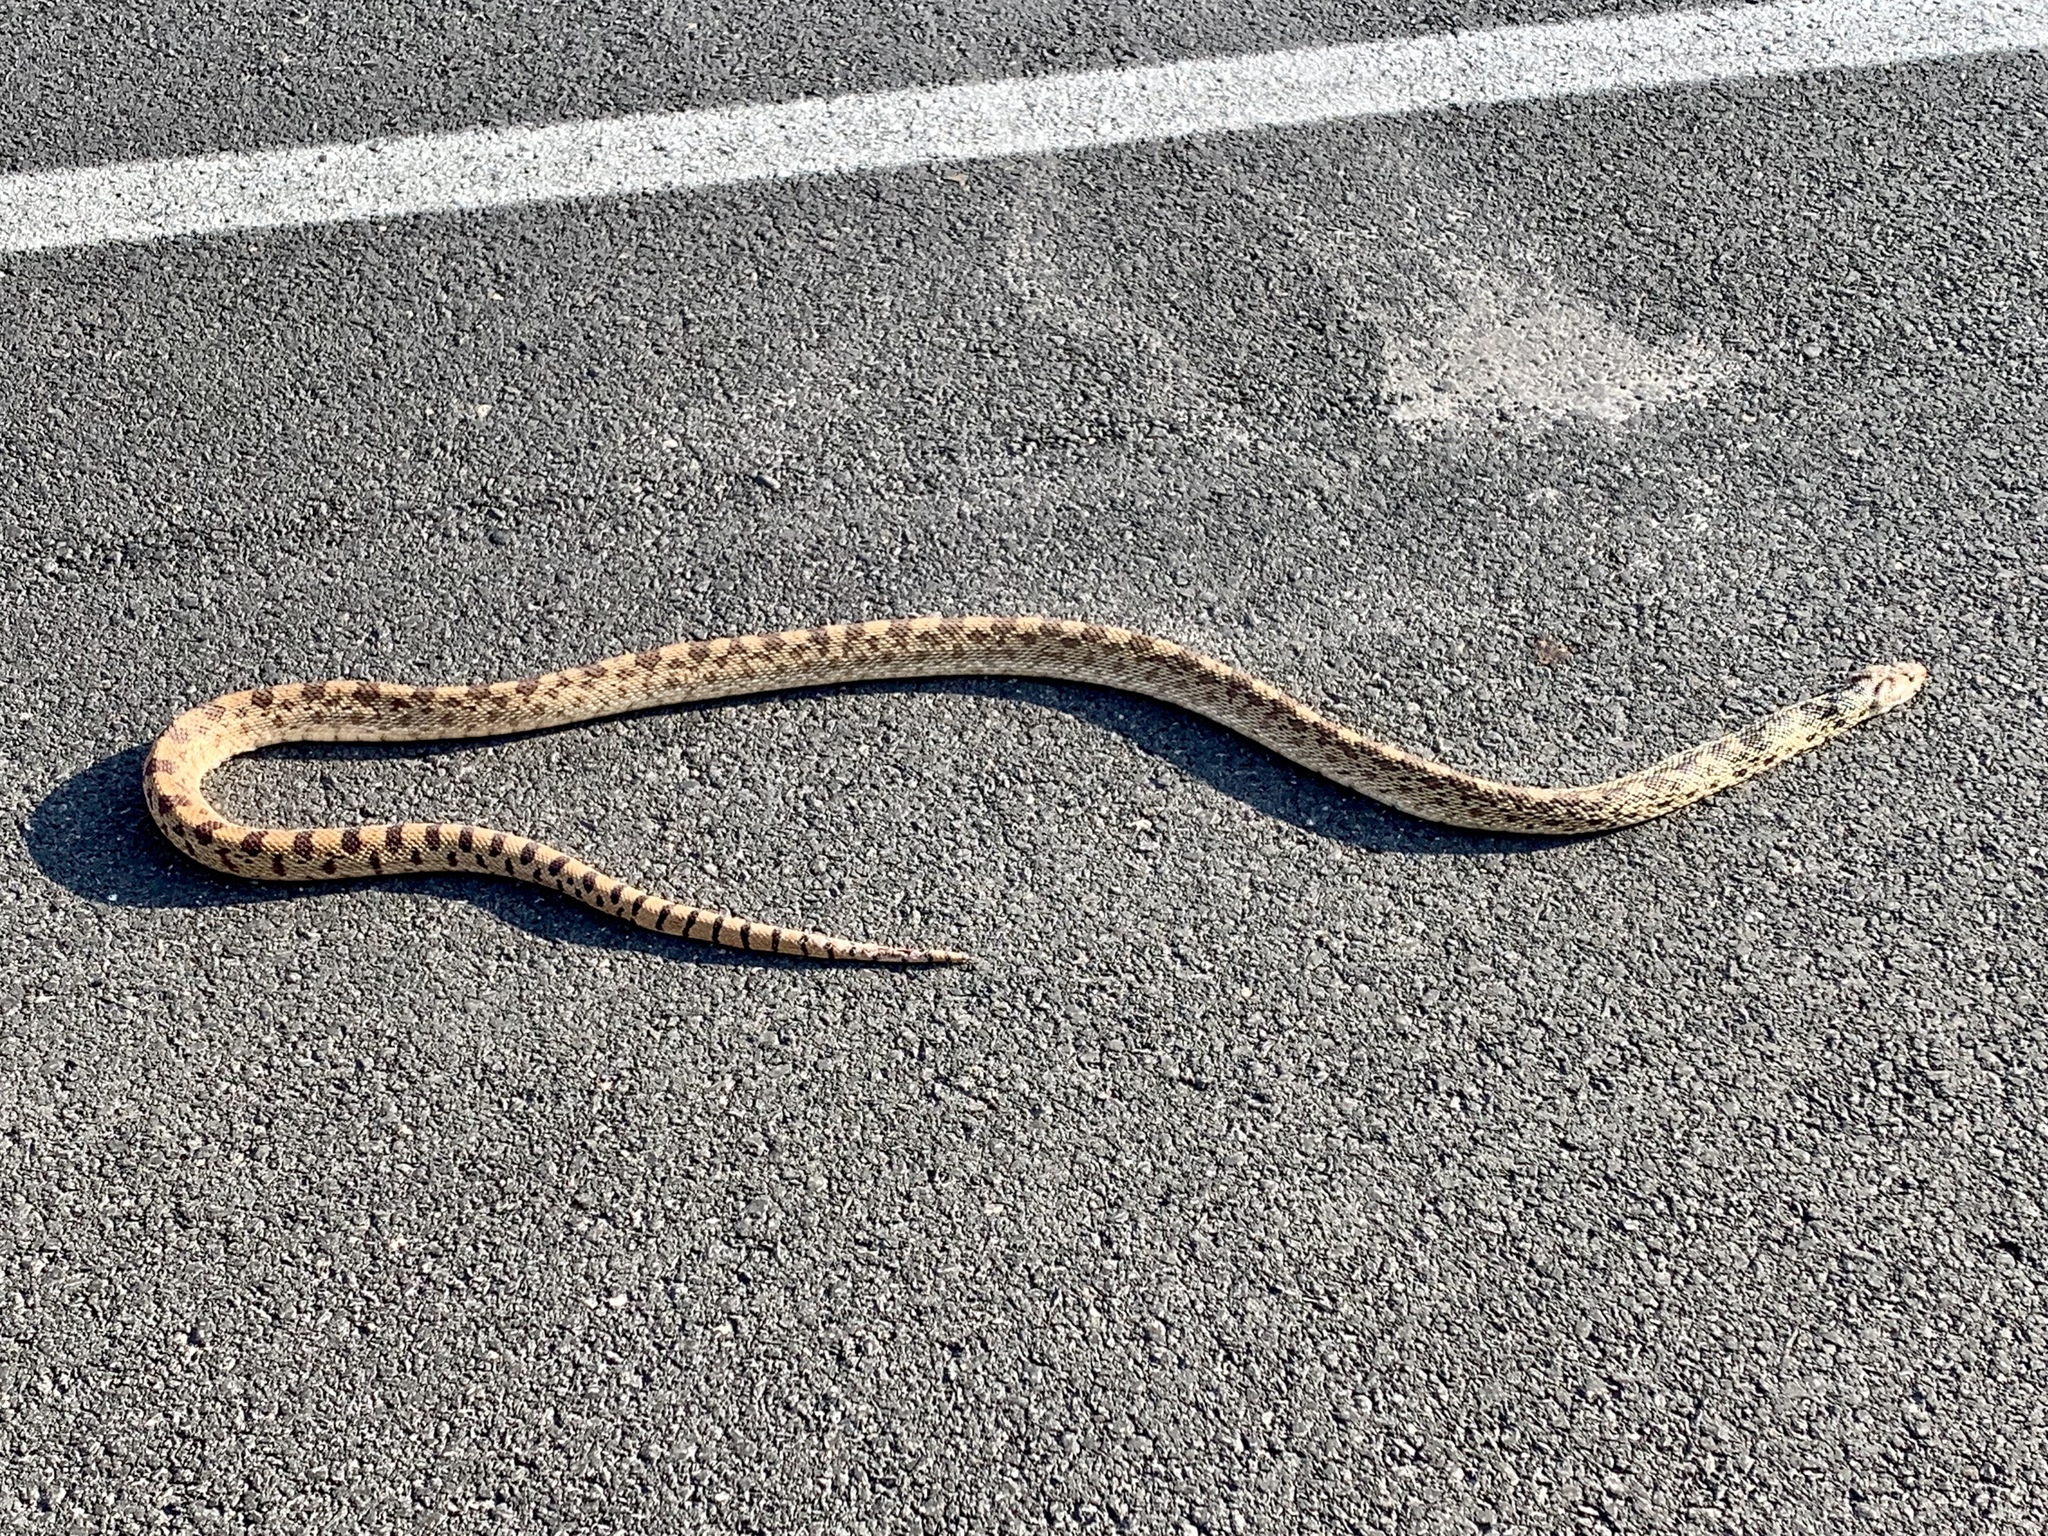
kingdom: Animalia
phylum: Chordata
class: Squamata
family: Colubridae
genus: Pituophis
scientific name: Pituophis catenifer
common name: Gopher snake
